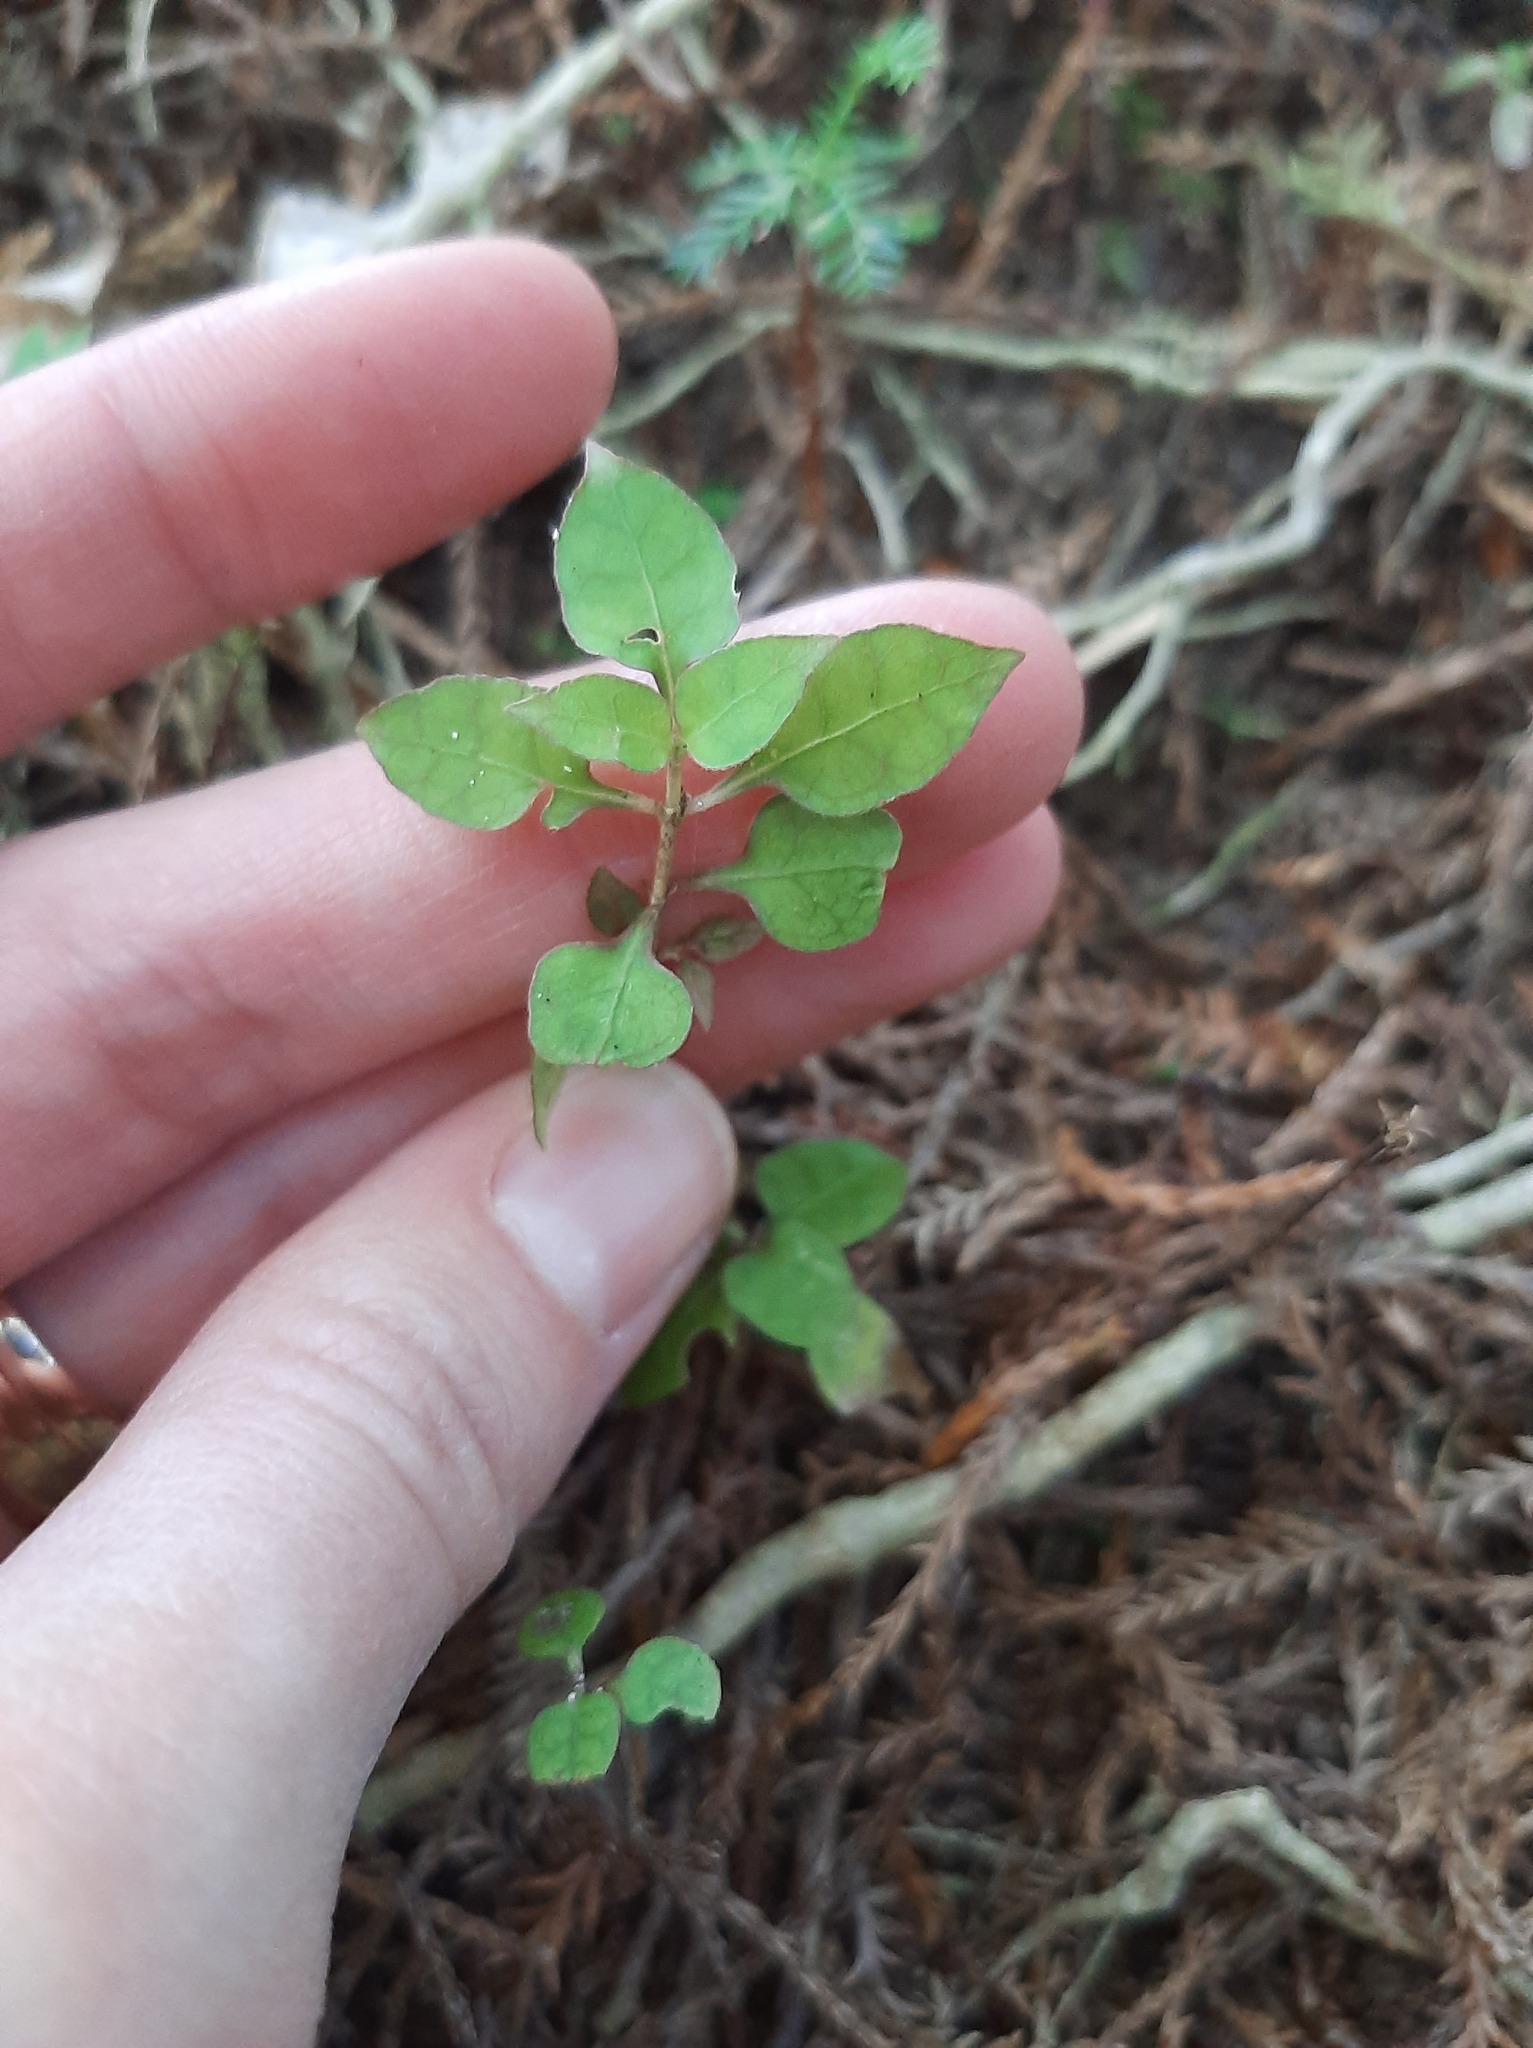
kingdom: Plantae
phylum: Tracheophyta
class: Magnoliopsida
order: Gentianales
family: Rubiaceae
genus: Coprosma
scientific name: Coprosma areolata
